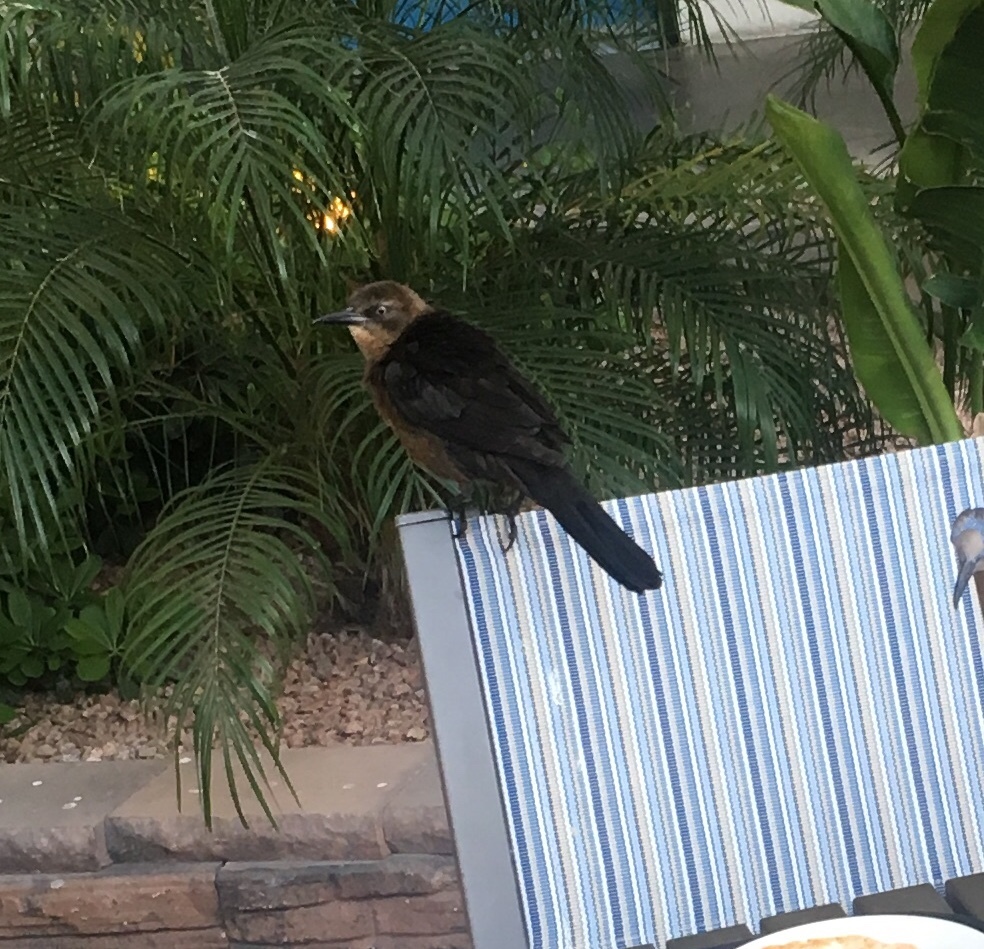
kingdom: Animalia
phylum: Chordata
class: Aves
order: Passeriformes
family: Icteridae
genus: Quiscalus
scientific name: Quiscalus mexicanus
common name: Great-tailed grackle
